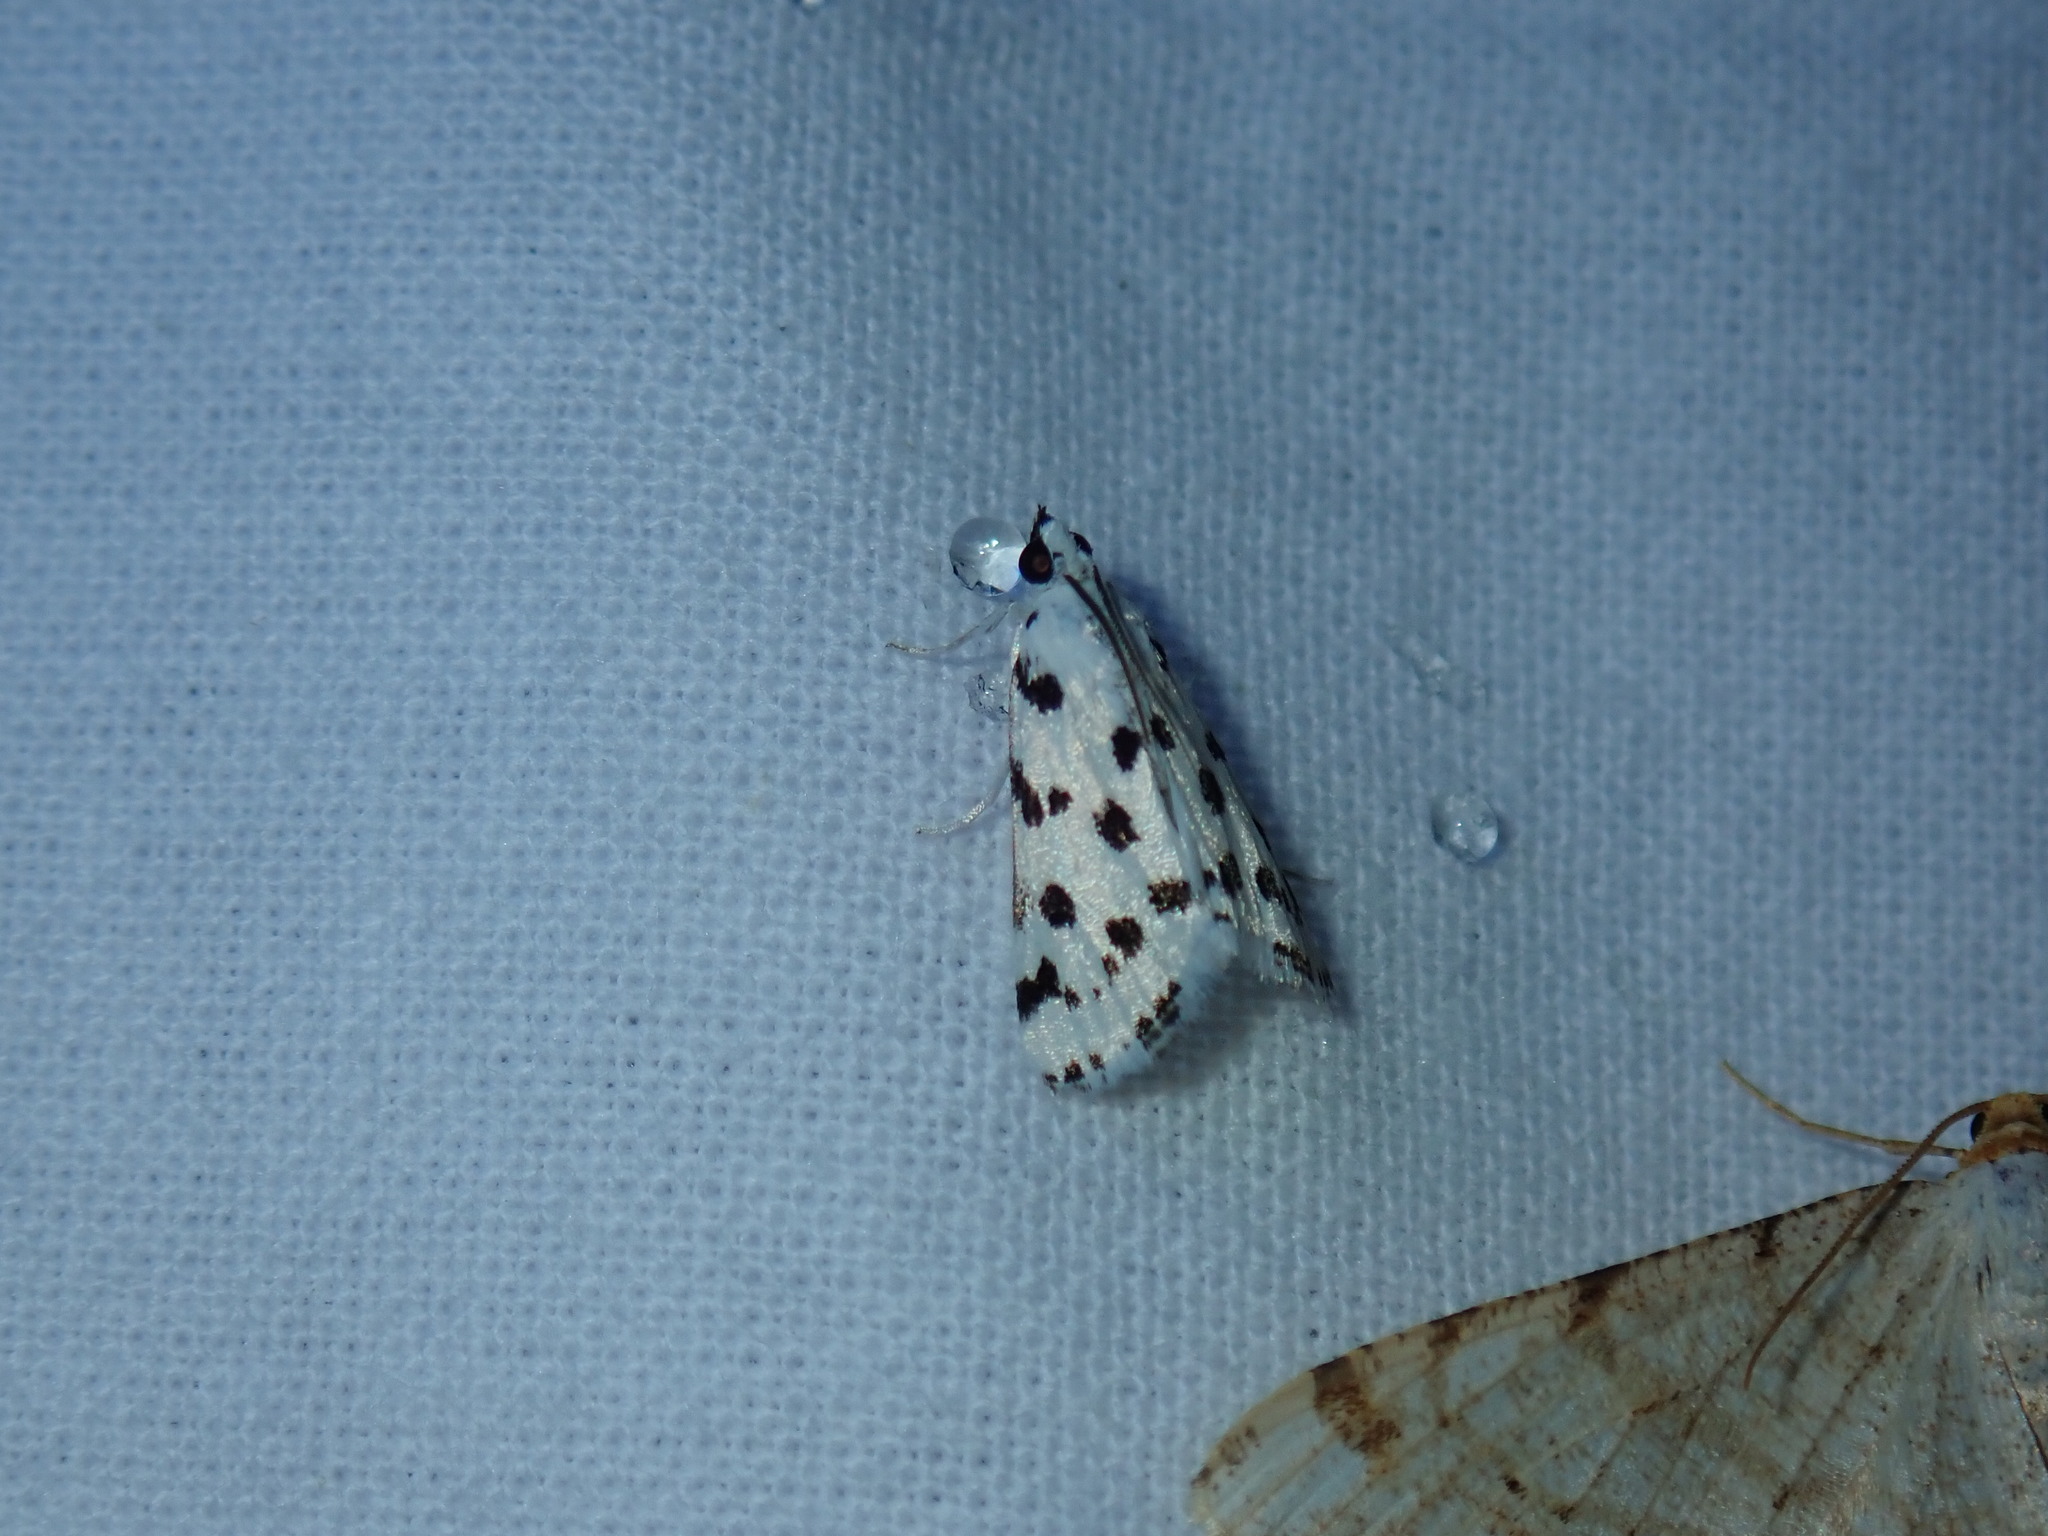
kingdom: Animalia
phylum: Arthropoda
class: Insecta
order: Lepidoptera
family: Crambidae
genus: Eustixia
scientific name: Eustixia pupula
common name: American cabbage pearl
